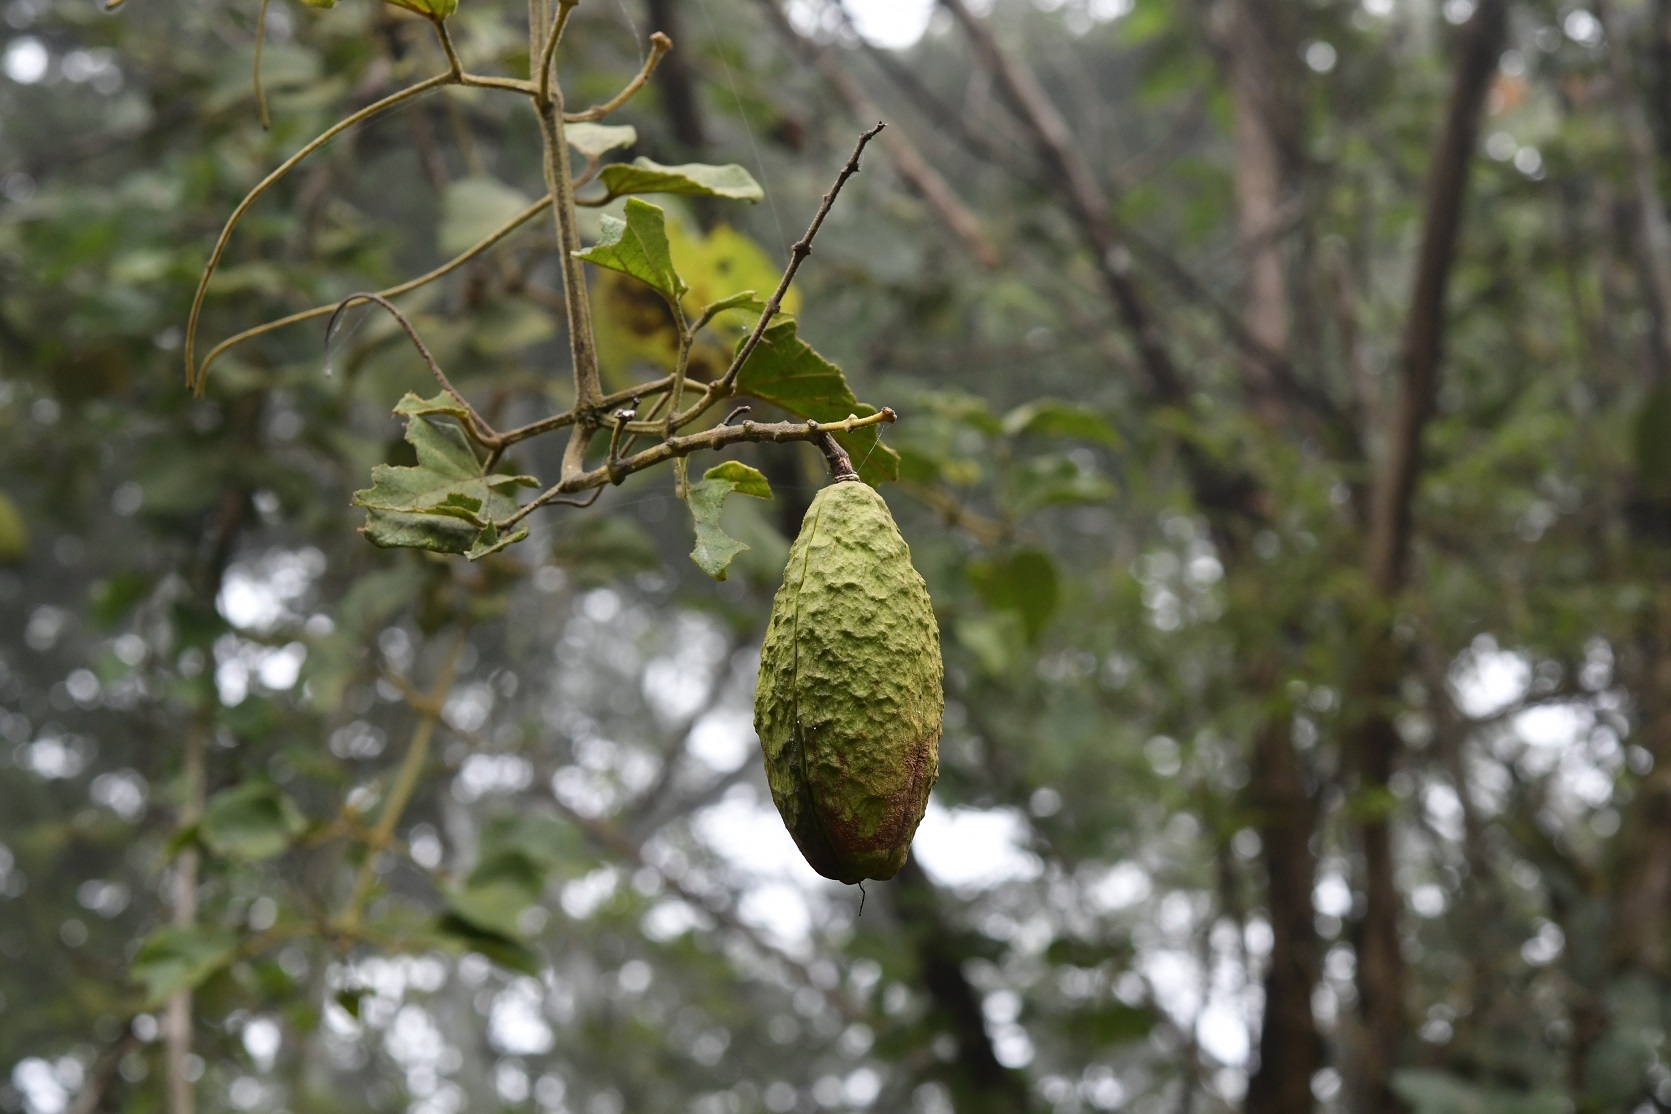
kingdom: Plantae
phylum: Tracheophyta
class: Magnoliopsida
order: Lamiales
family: Bignoniaceae
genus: Amphilophium
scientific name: Amphilophium paniculatum
